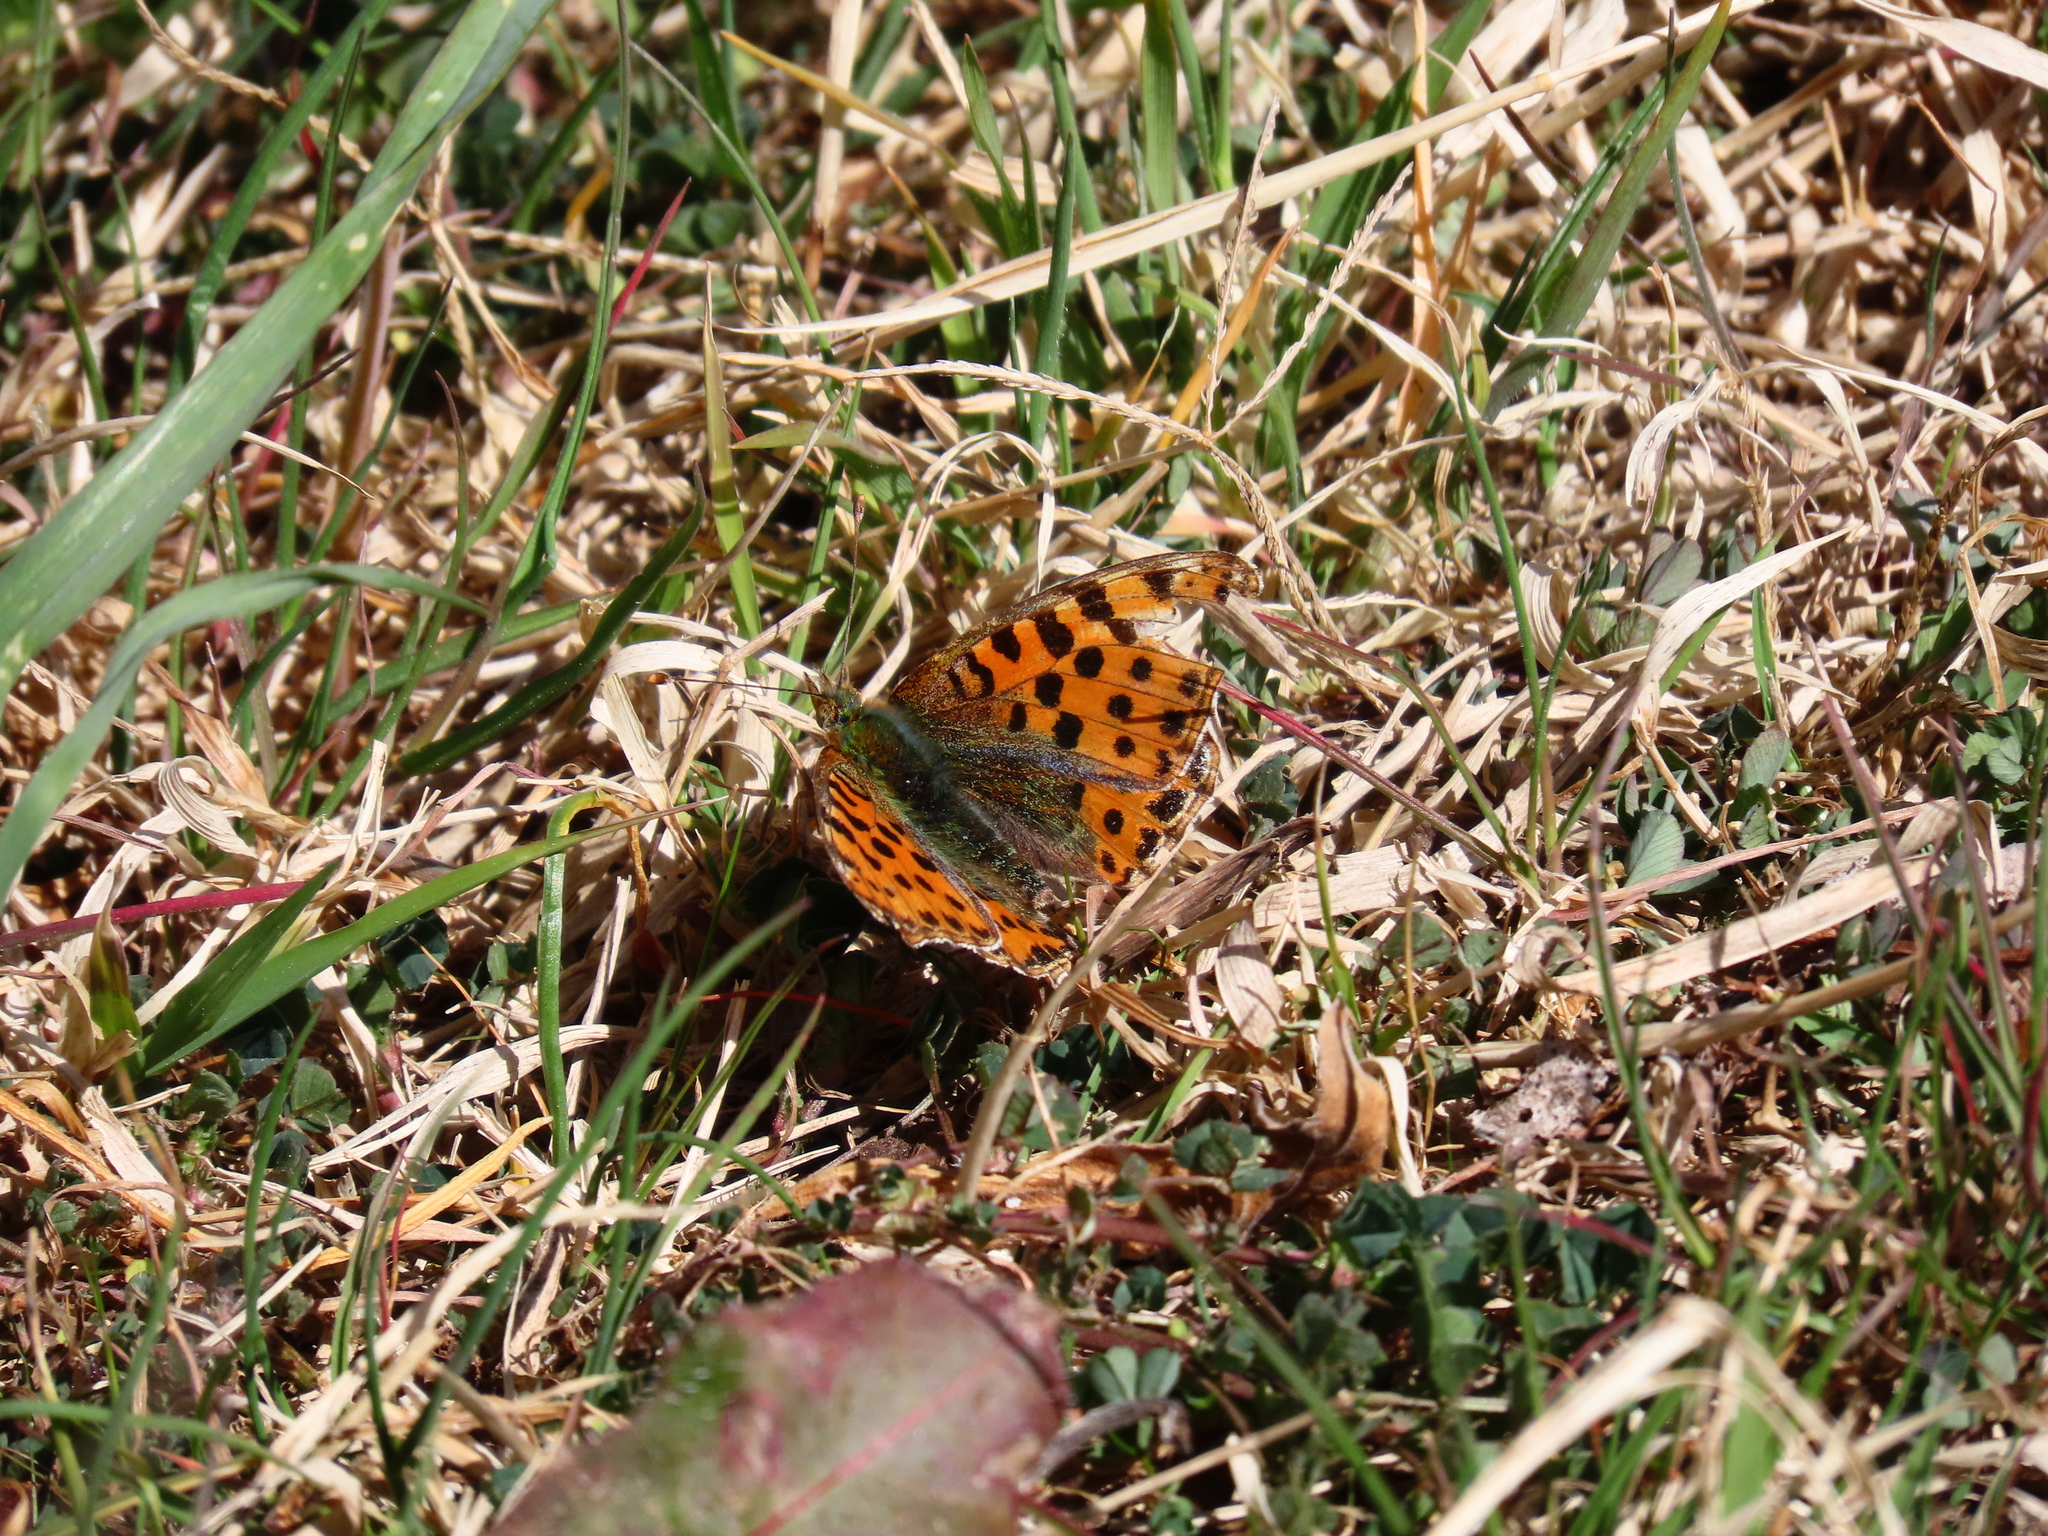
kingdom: Animalia
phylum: Arthropoda
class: Insecta
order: Lepidoptera
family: Nymphalidae
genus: Issoria
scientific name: Issoria lathonia
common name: Queen of spain fritillary
